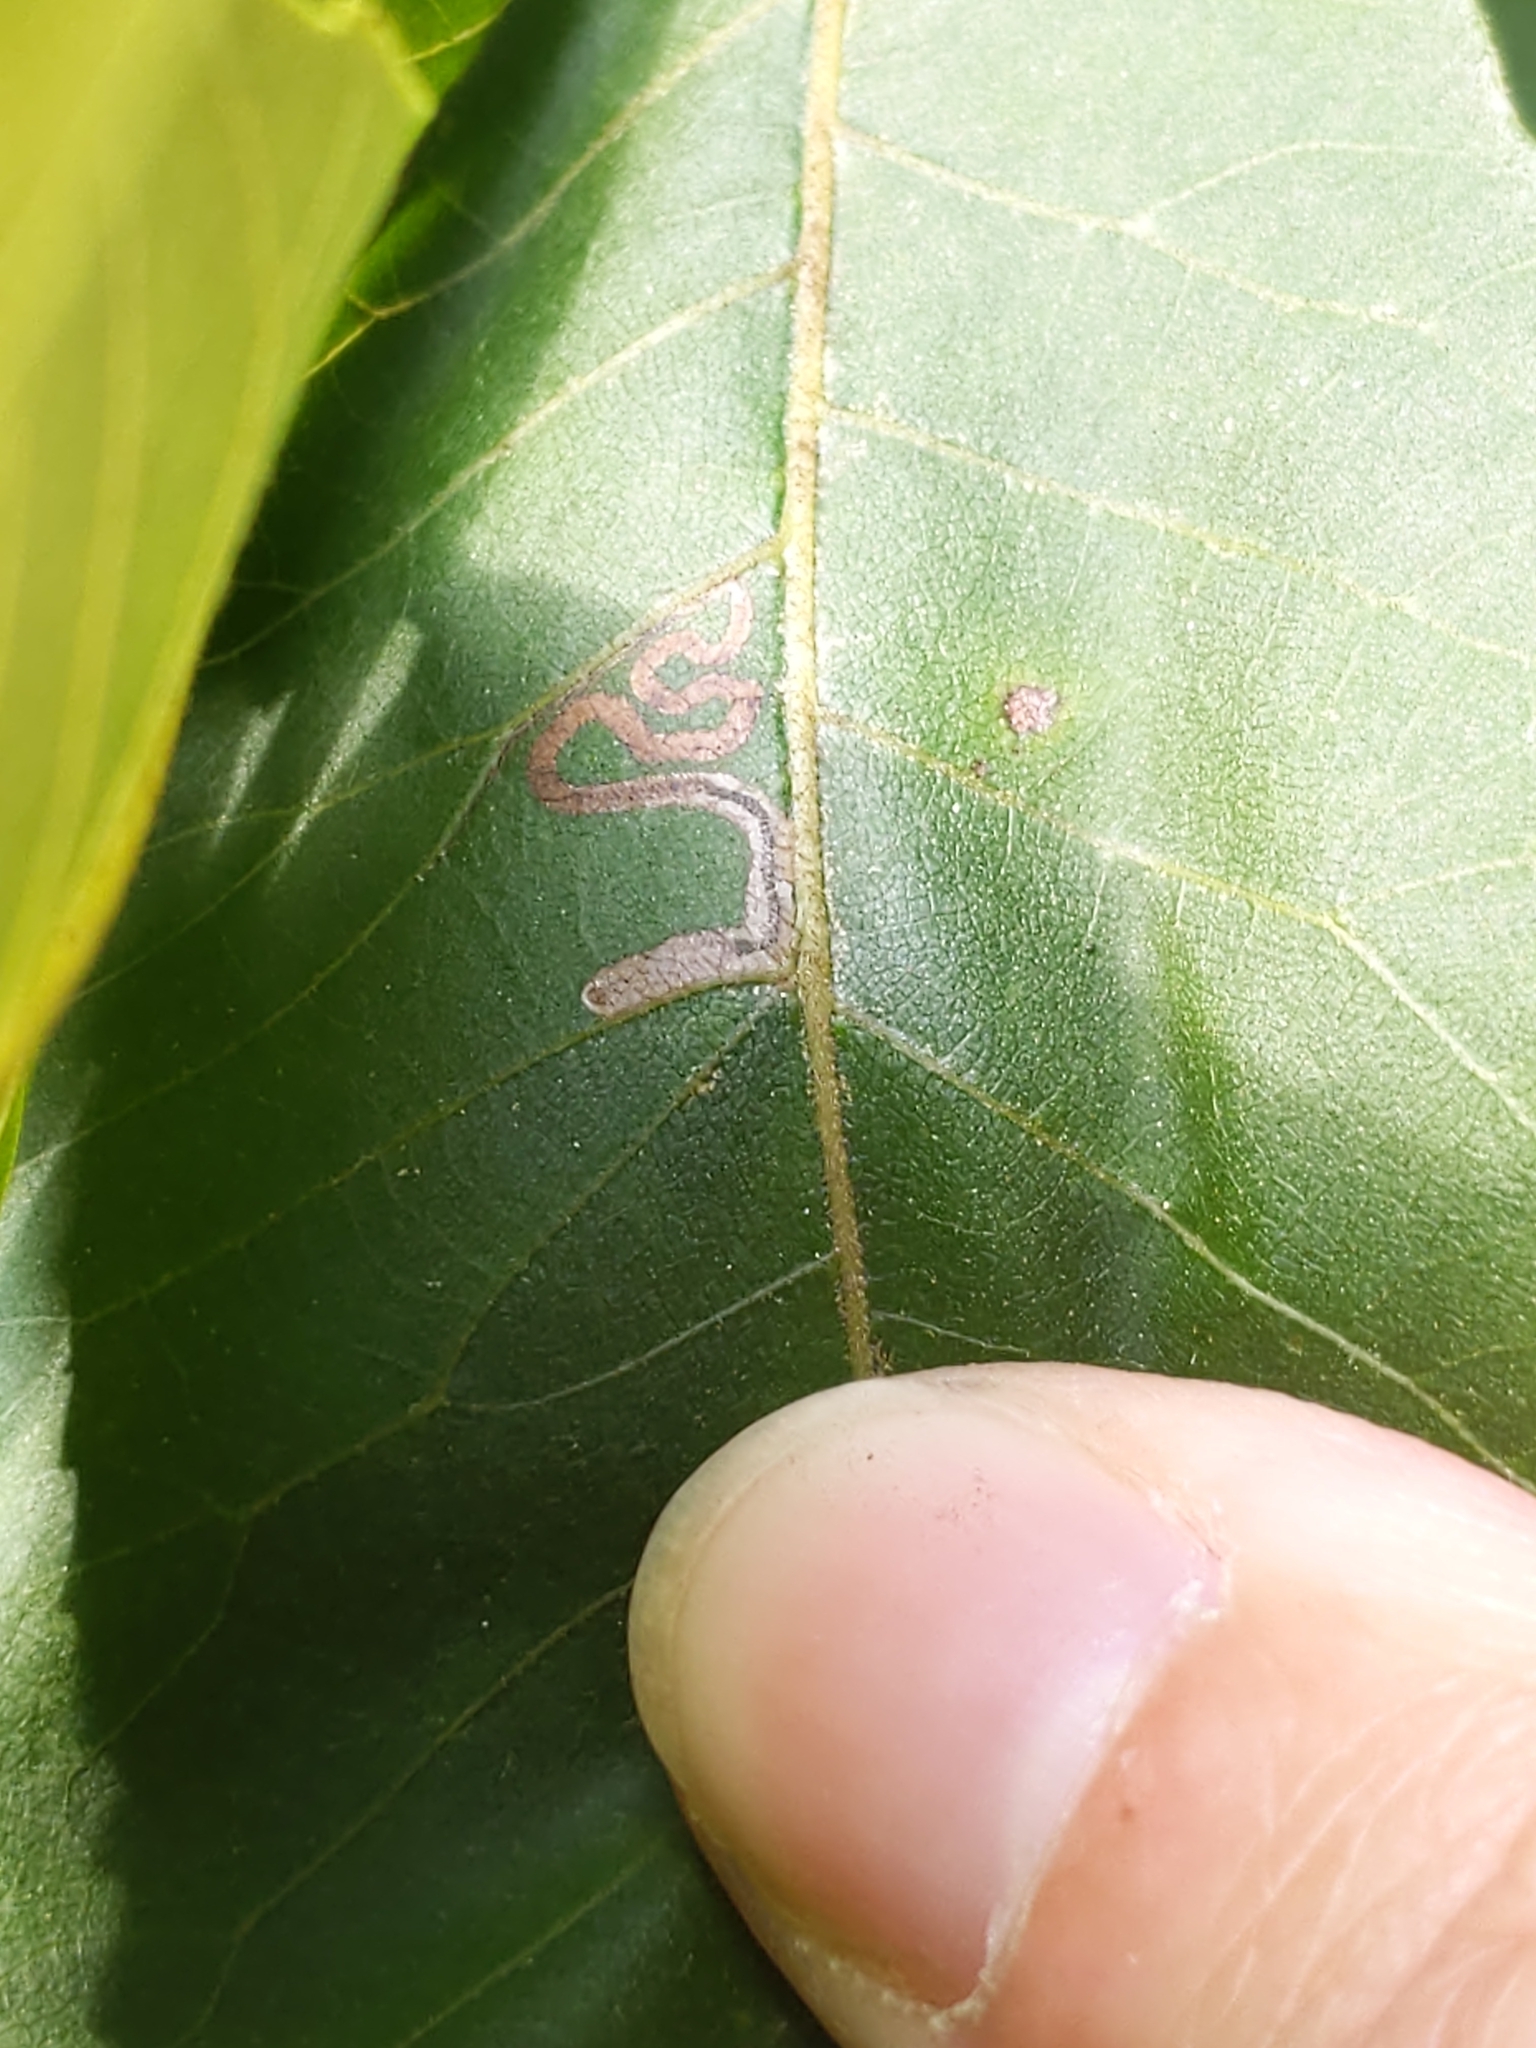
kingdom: Animalia
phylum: Arthropoda
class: Insecta
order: Lepidoptera
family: Nepticulidae
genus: Stigmella
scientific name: Stigmella caryaefoliella
